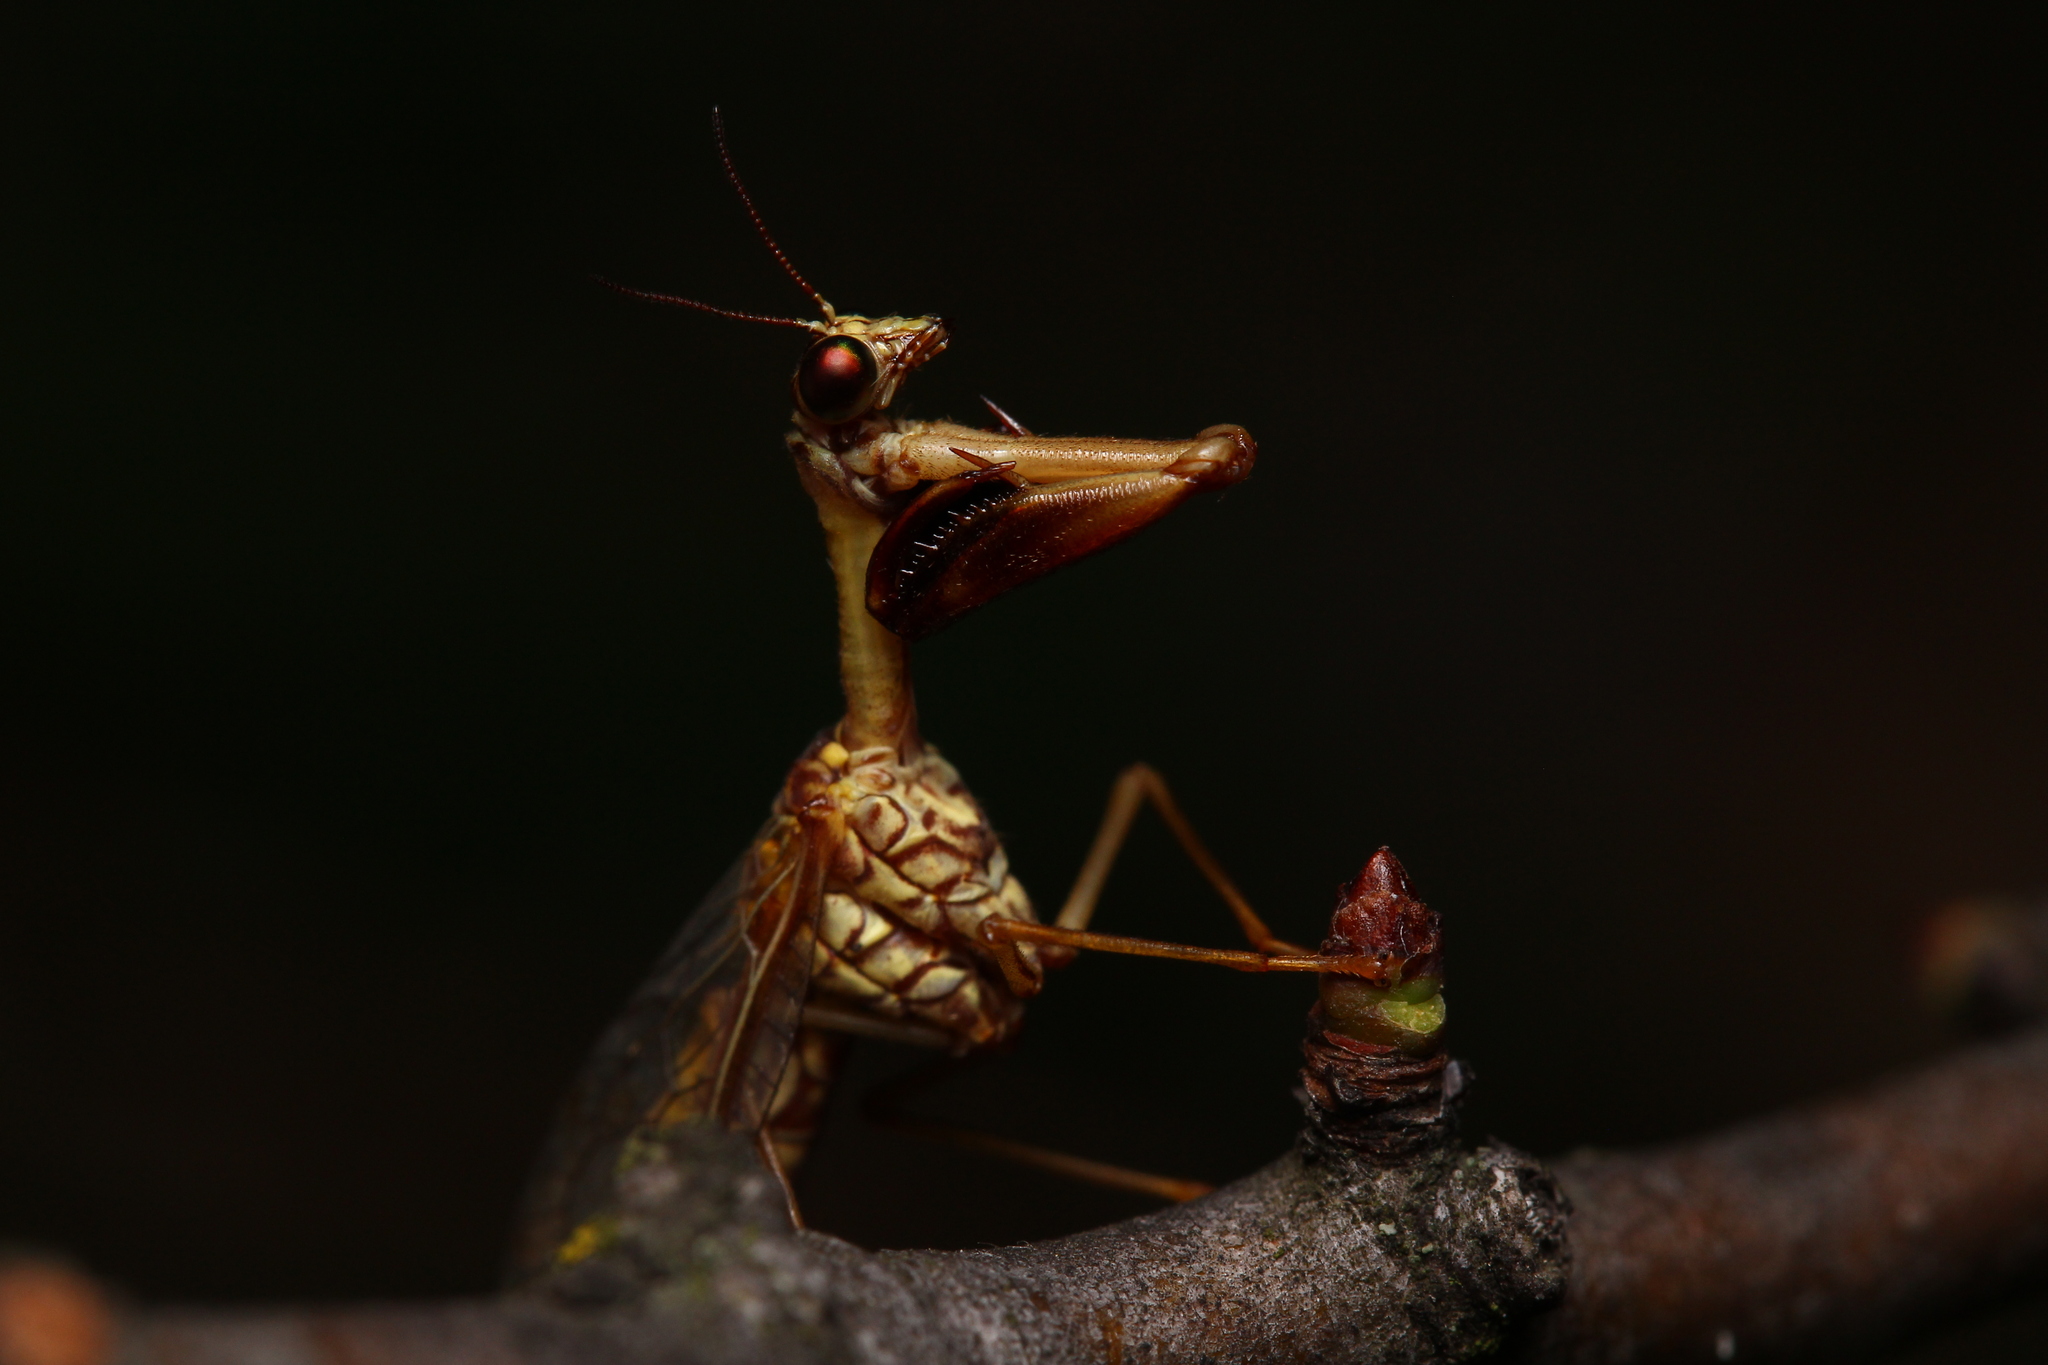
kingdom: Animalia
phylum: Arthropoda
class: Insecta
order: Neuroptera
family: Mantispidae
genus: Mantispa
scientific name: Mantispa styriaca
